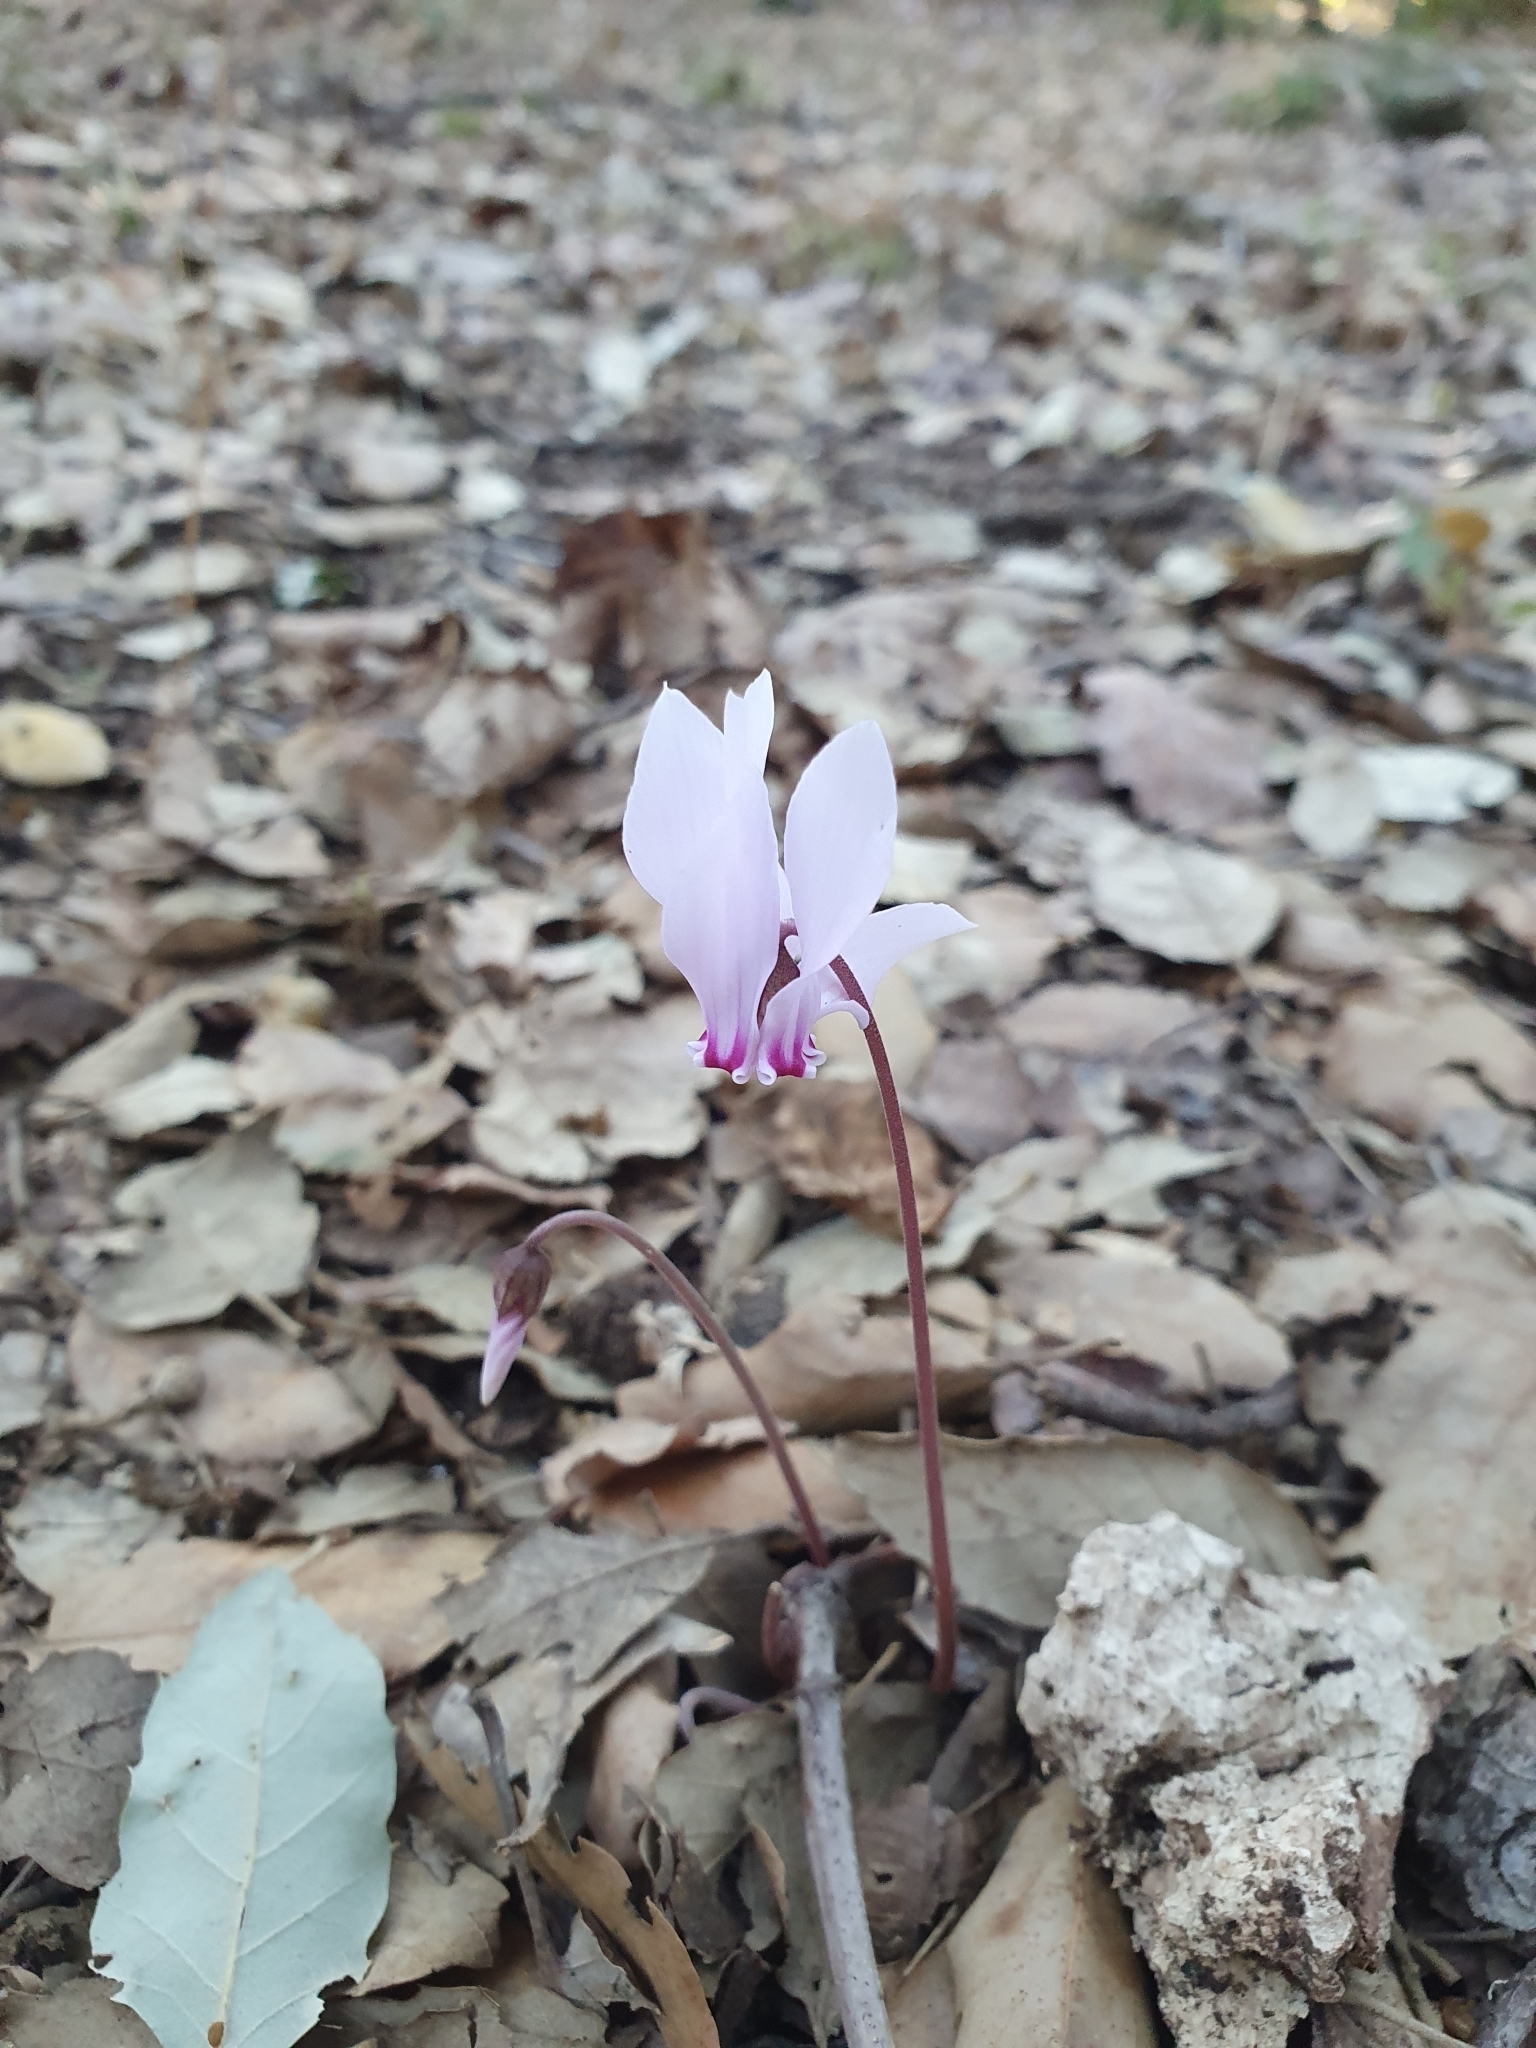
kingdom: Plantae
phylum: Tracheophyta
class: Magnoliopsida
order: Ericales
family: Primulaceae
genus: Cyclamen
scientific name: Cyclamen africanum
